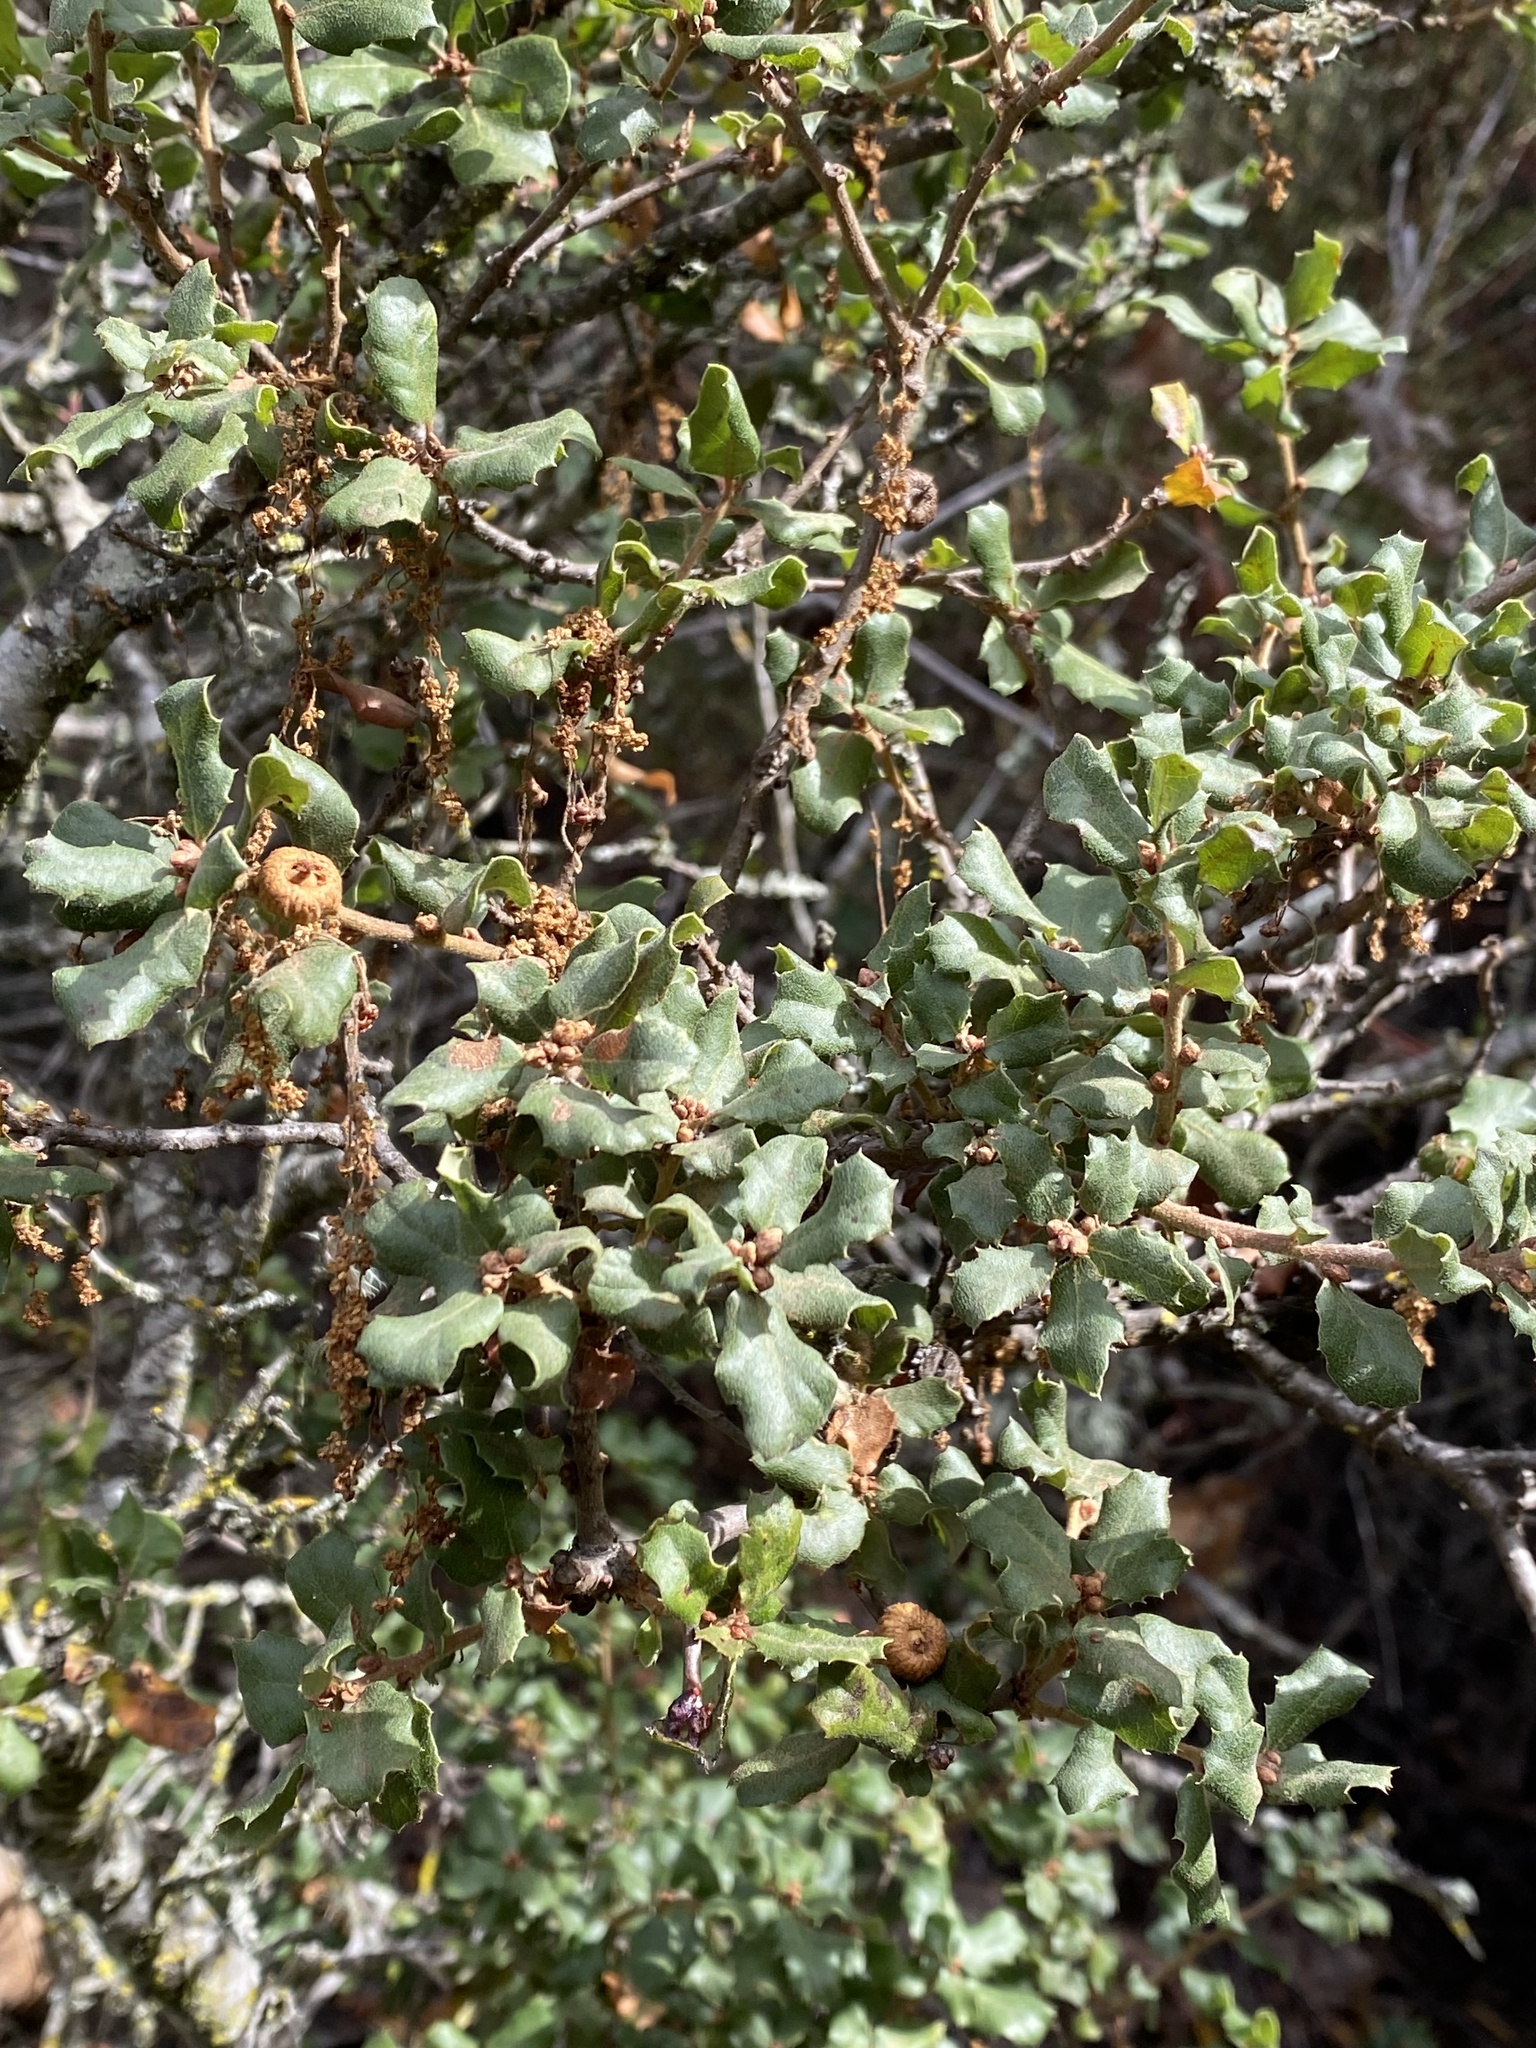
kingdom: Plantae
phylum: Tracheophyta
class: Magnoliopsida
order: Fagales
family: Fagaceae
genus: Quercus
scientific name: Quercus durata
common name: Leather oak
